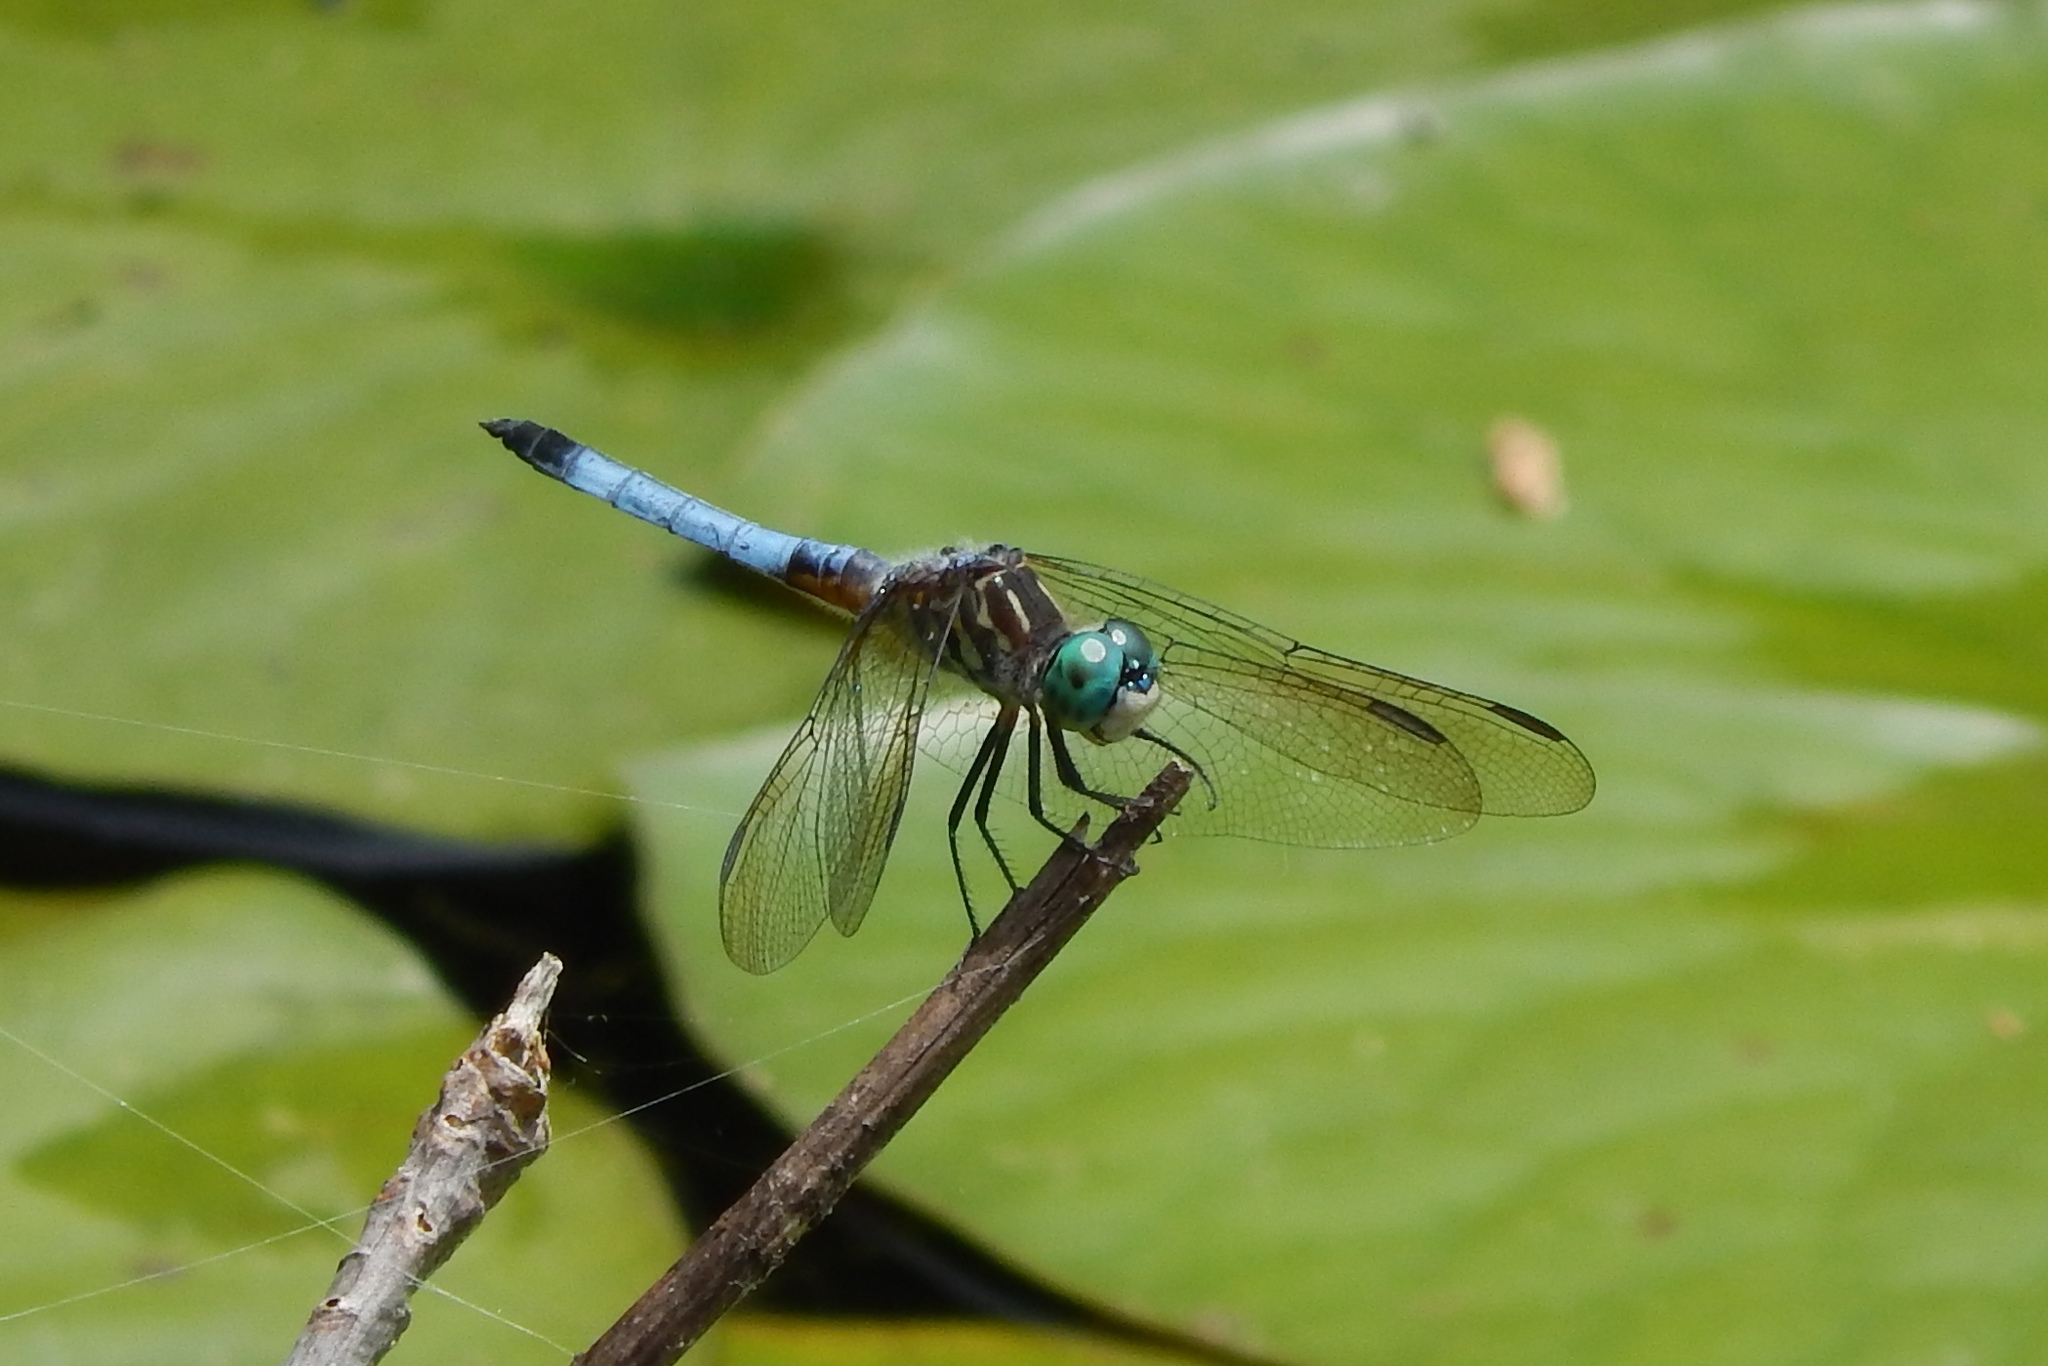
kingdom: Animalia
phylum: Arthropoda
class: Insecta
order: Odonata
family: Libellulidae
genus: Pachydiplax
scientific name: Pachydiplax longipennis
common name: Blue dasher
